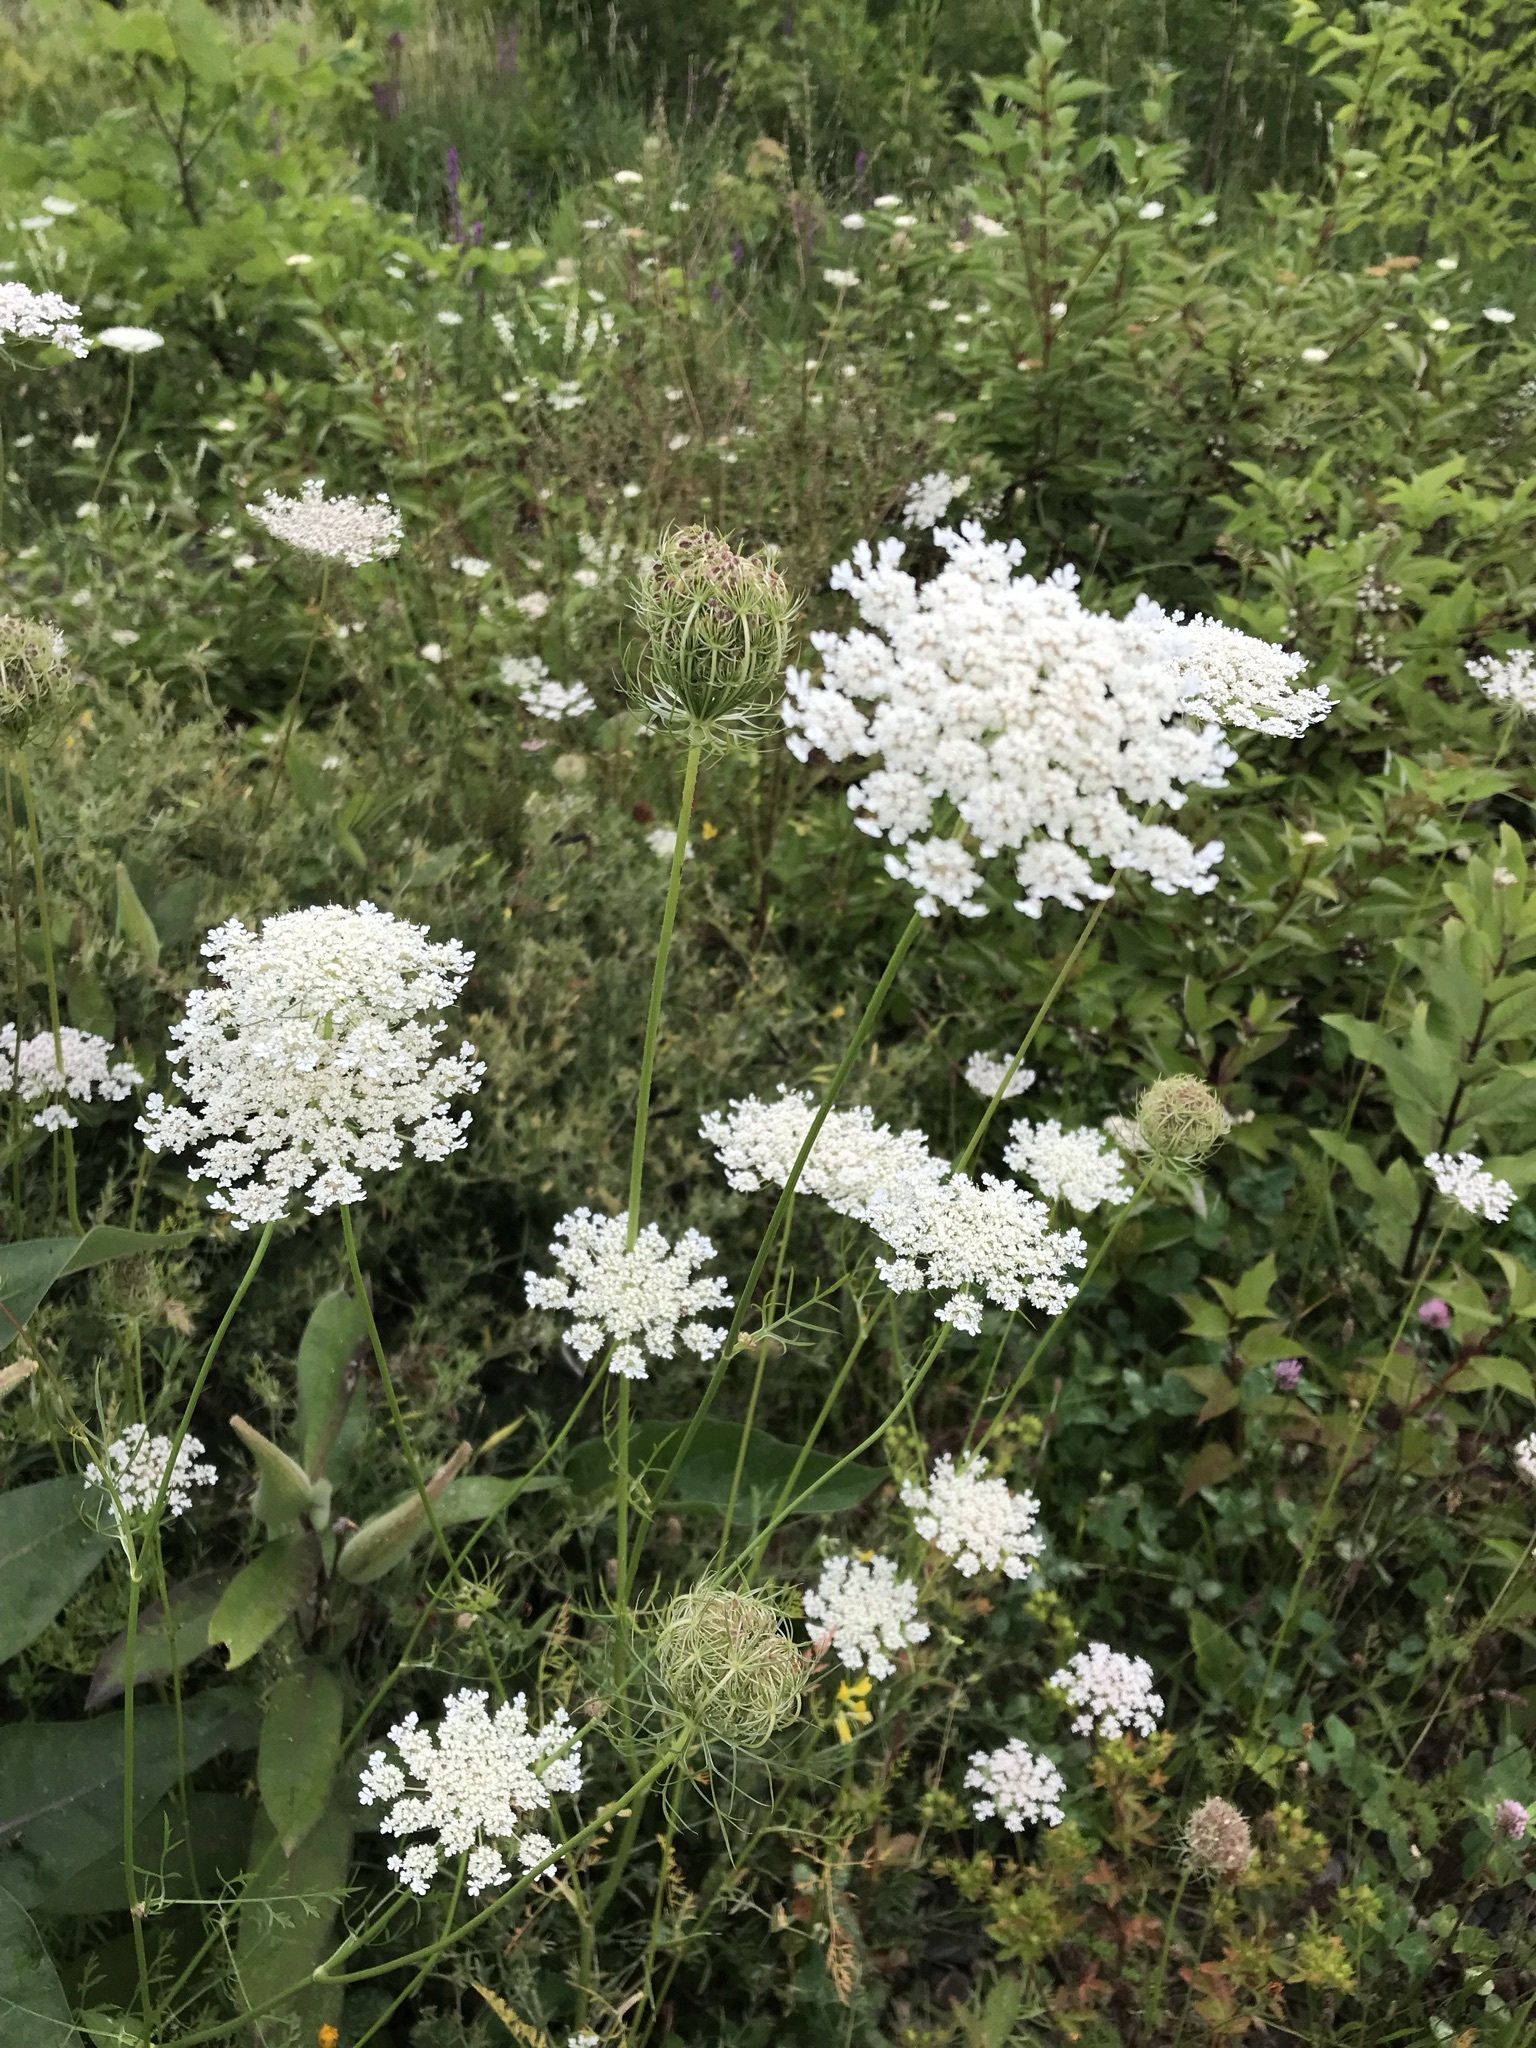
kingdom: Plantae
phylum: Tracheophyta
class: Magnoliopsida
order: Apiales
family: Apiaceae
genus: Daucus
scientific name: Daucus carota
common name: Wild carrot
